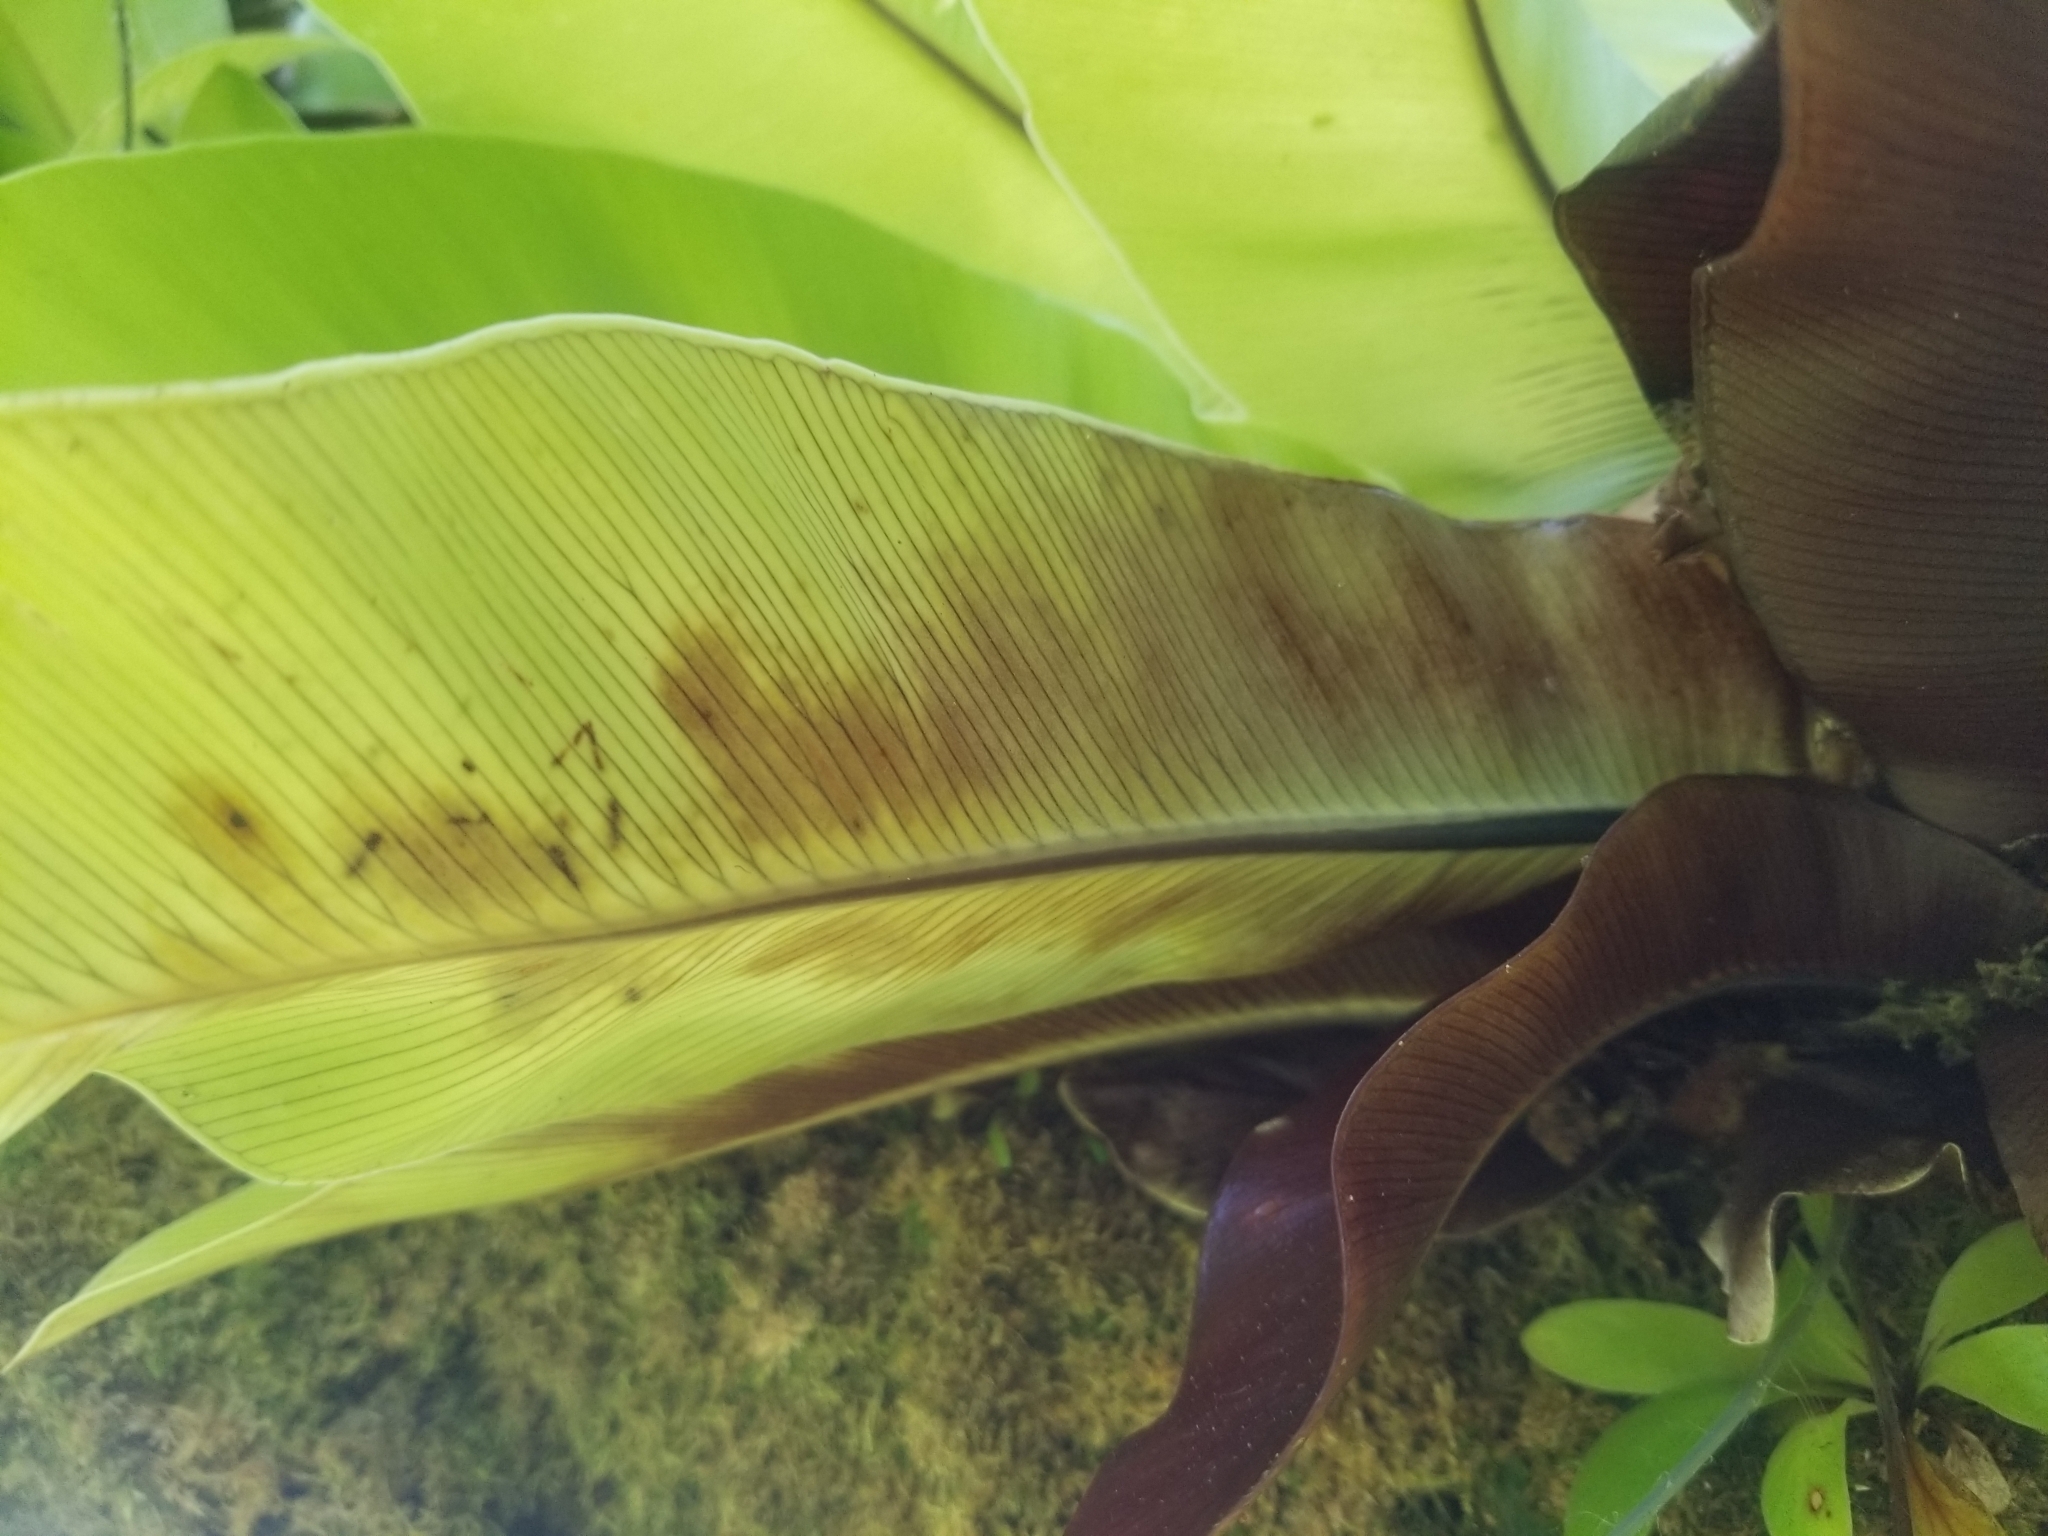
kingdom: Plantae
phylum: Tracheophyta
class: Polypodiopsida
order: Polypodiales
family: Aspleniaceae
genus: Asplenium
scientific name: Asplenium nidus
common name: Bird's-nest fern
